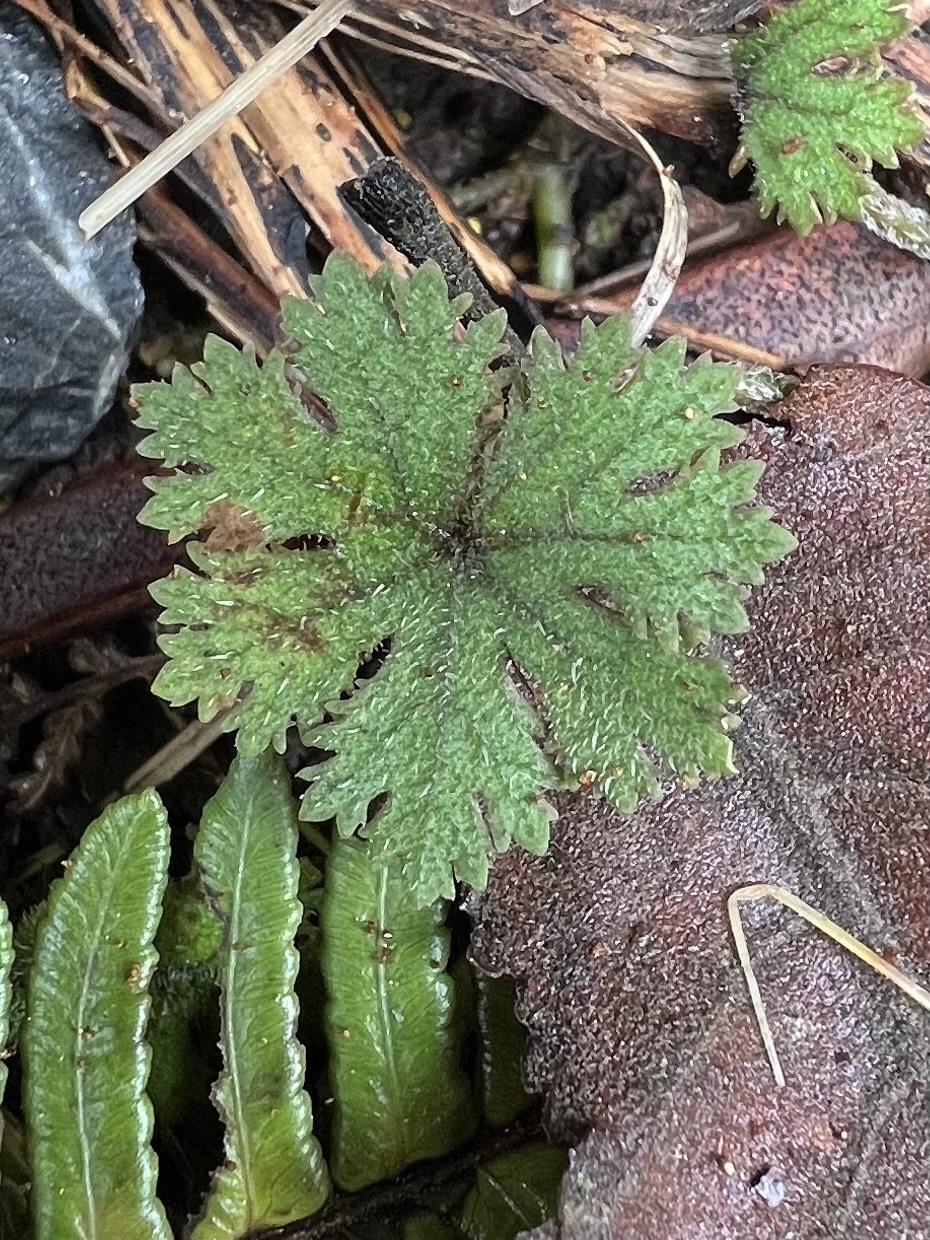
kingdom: Plantae
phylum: Tracheophyta
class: Magnoliopsida
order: Apiales
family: Araliaceae
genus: Hydrocotyle
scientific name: Hydrocotyle dissecta
